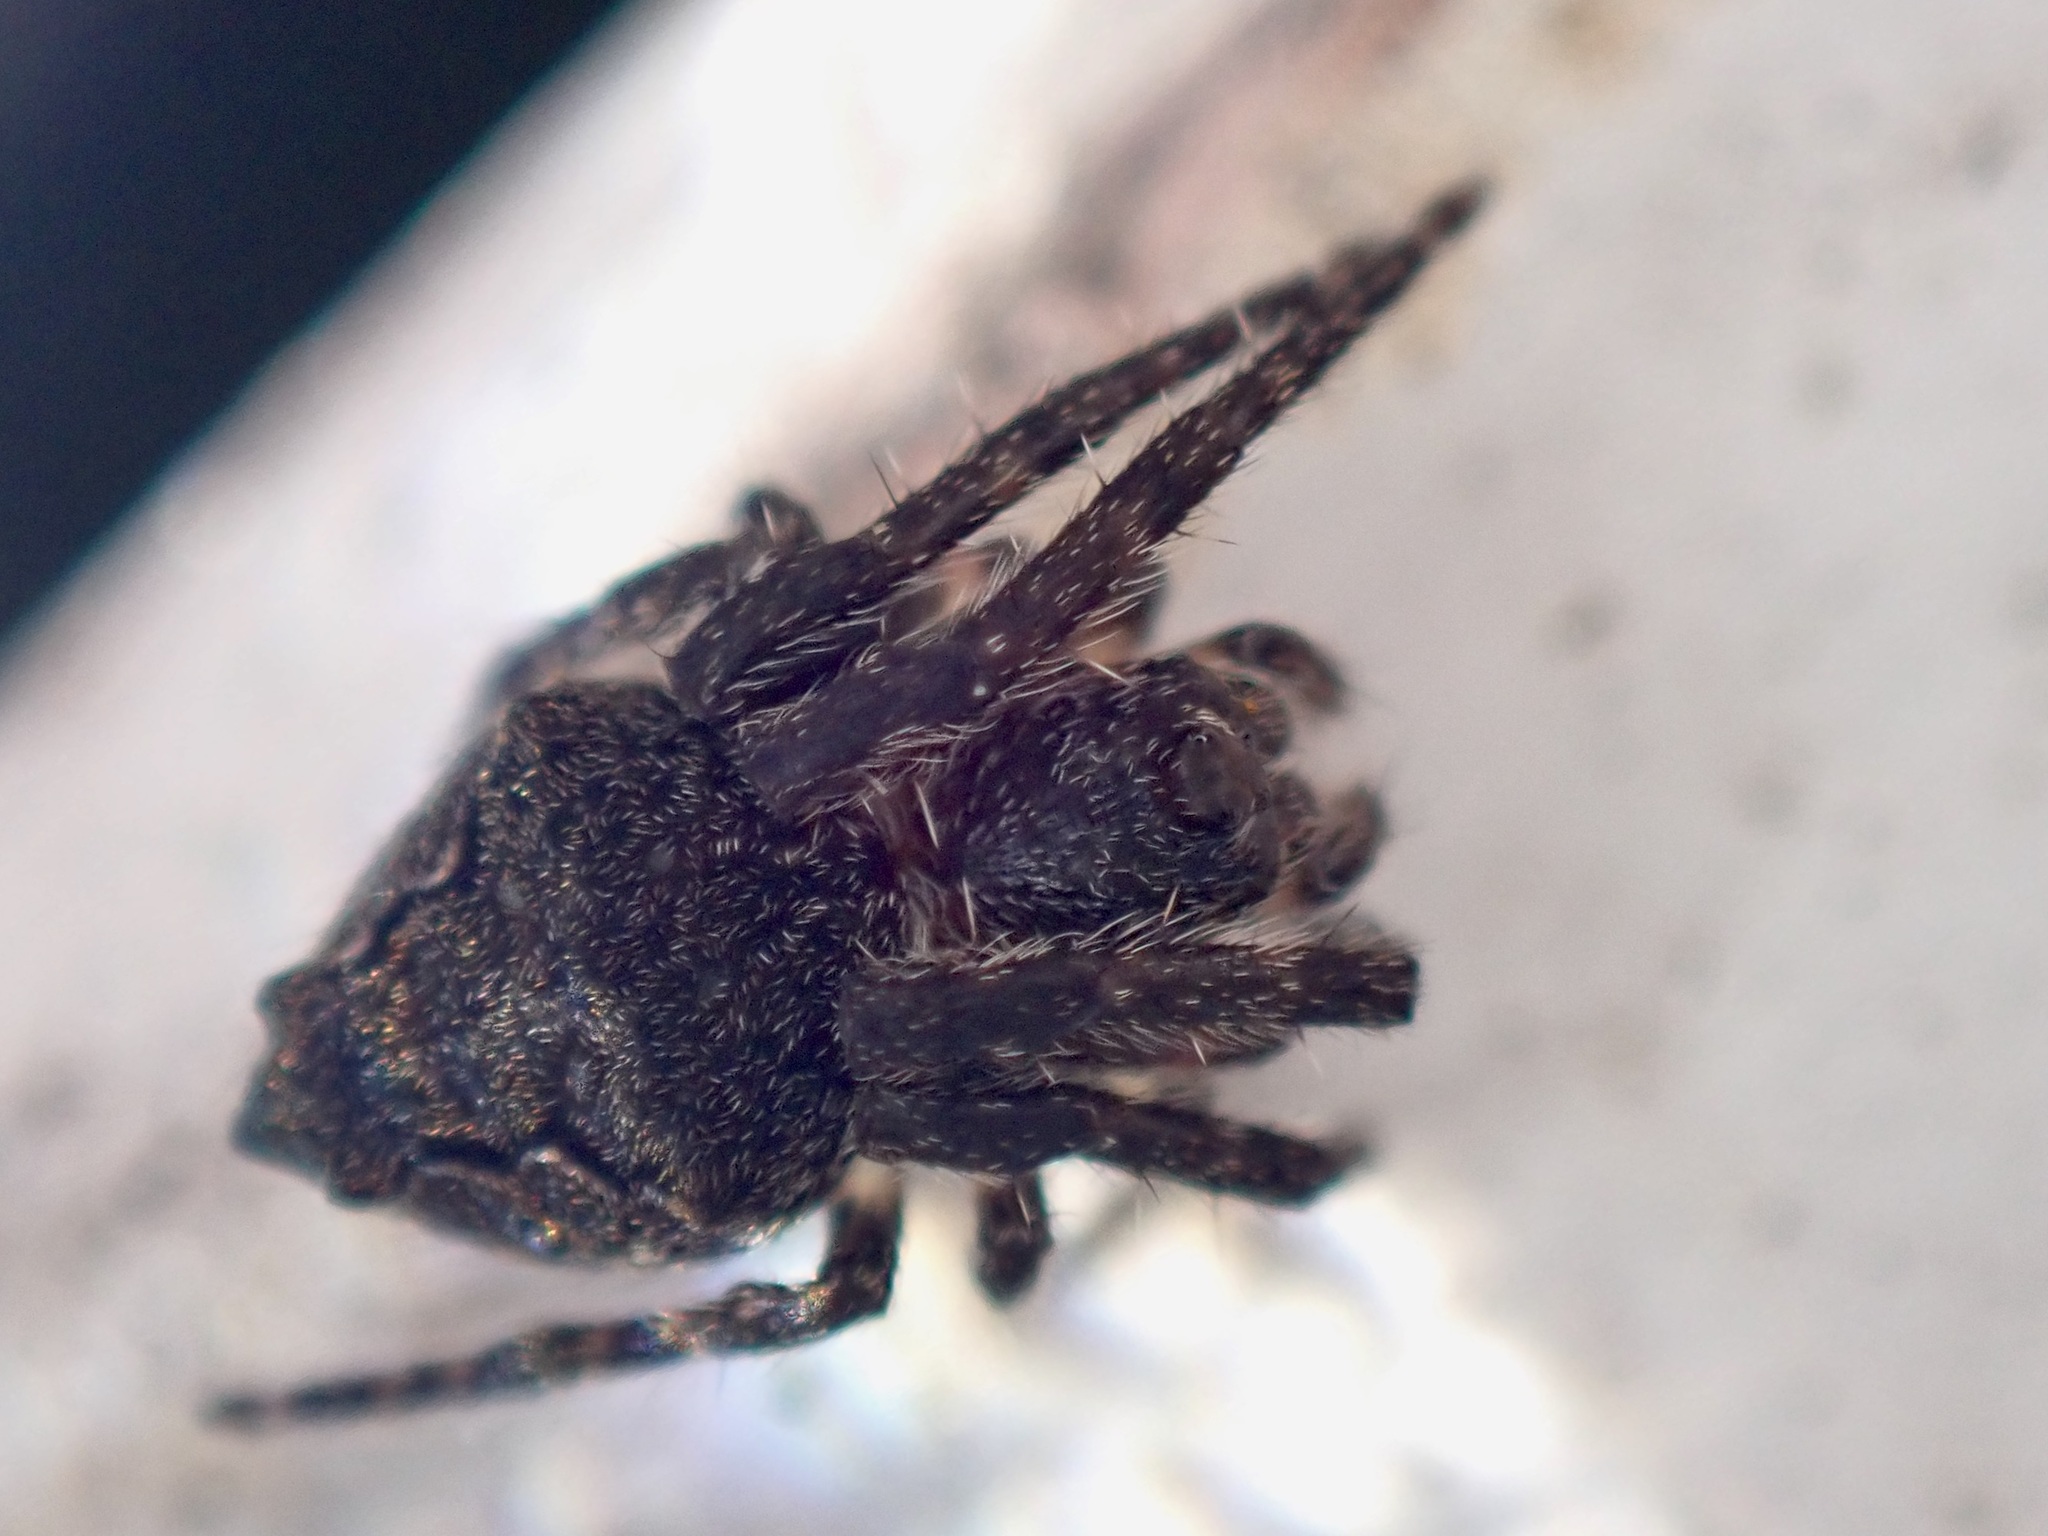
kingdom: Animalia
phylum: Arthropoda
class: Arachnida
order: Araneae
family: Araneidae
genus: Eriophora
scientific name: Eriophora pustulosa
